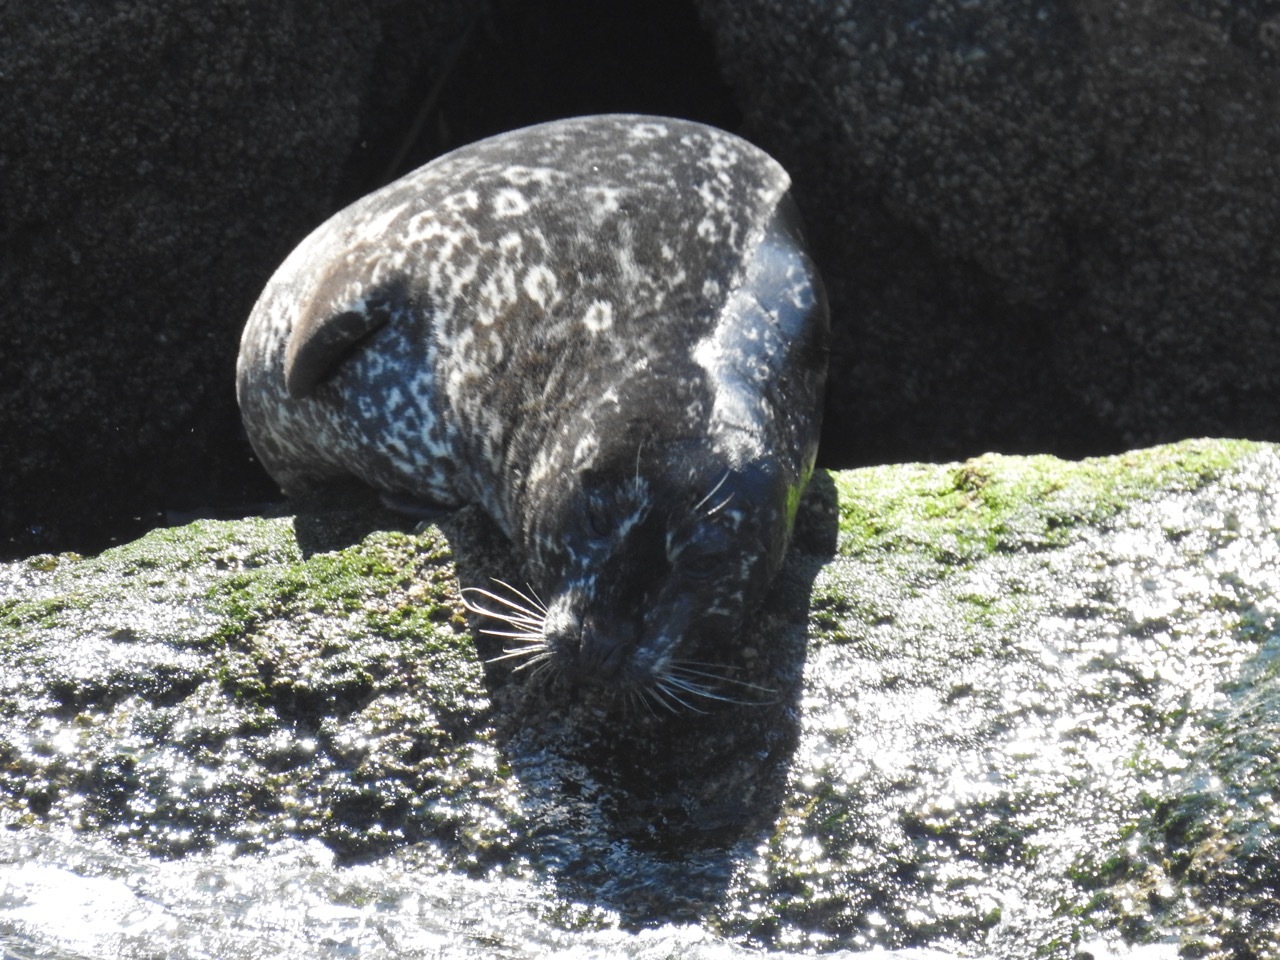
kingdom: Animalia
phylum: Chordata
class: Mammalia
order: Carnivora
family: Phocidae
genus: Phoca
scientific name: Phoca vitulina
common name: Harbor seal
